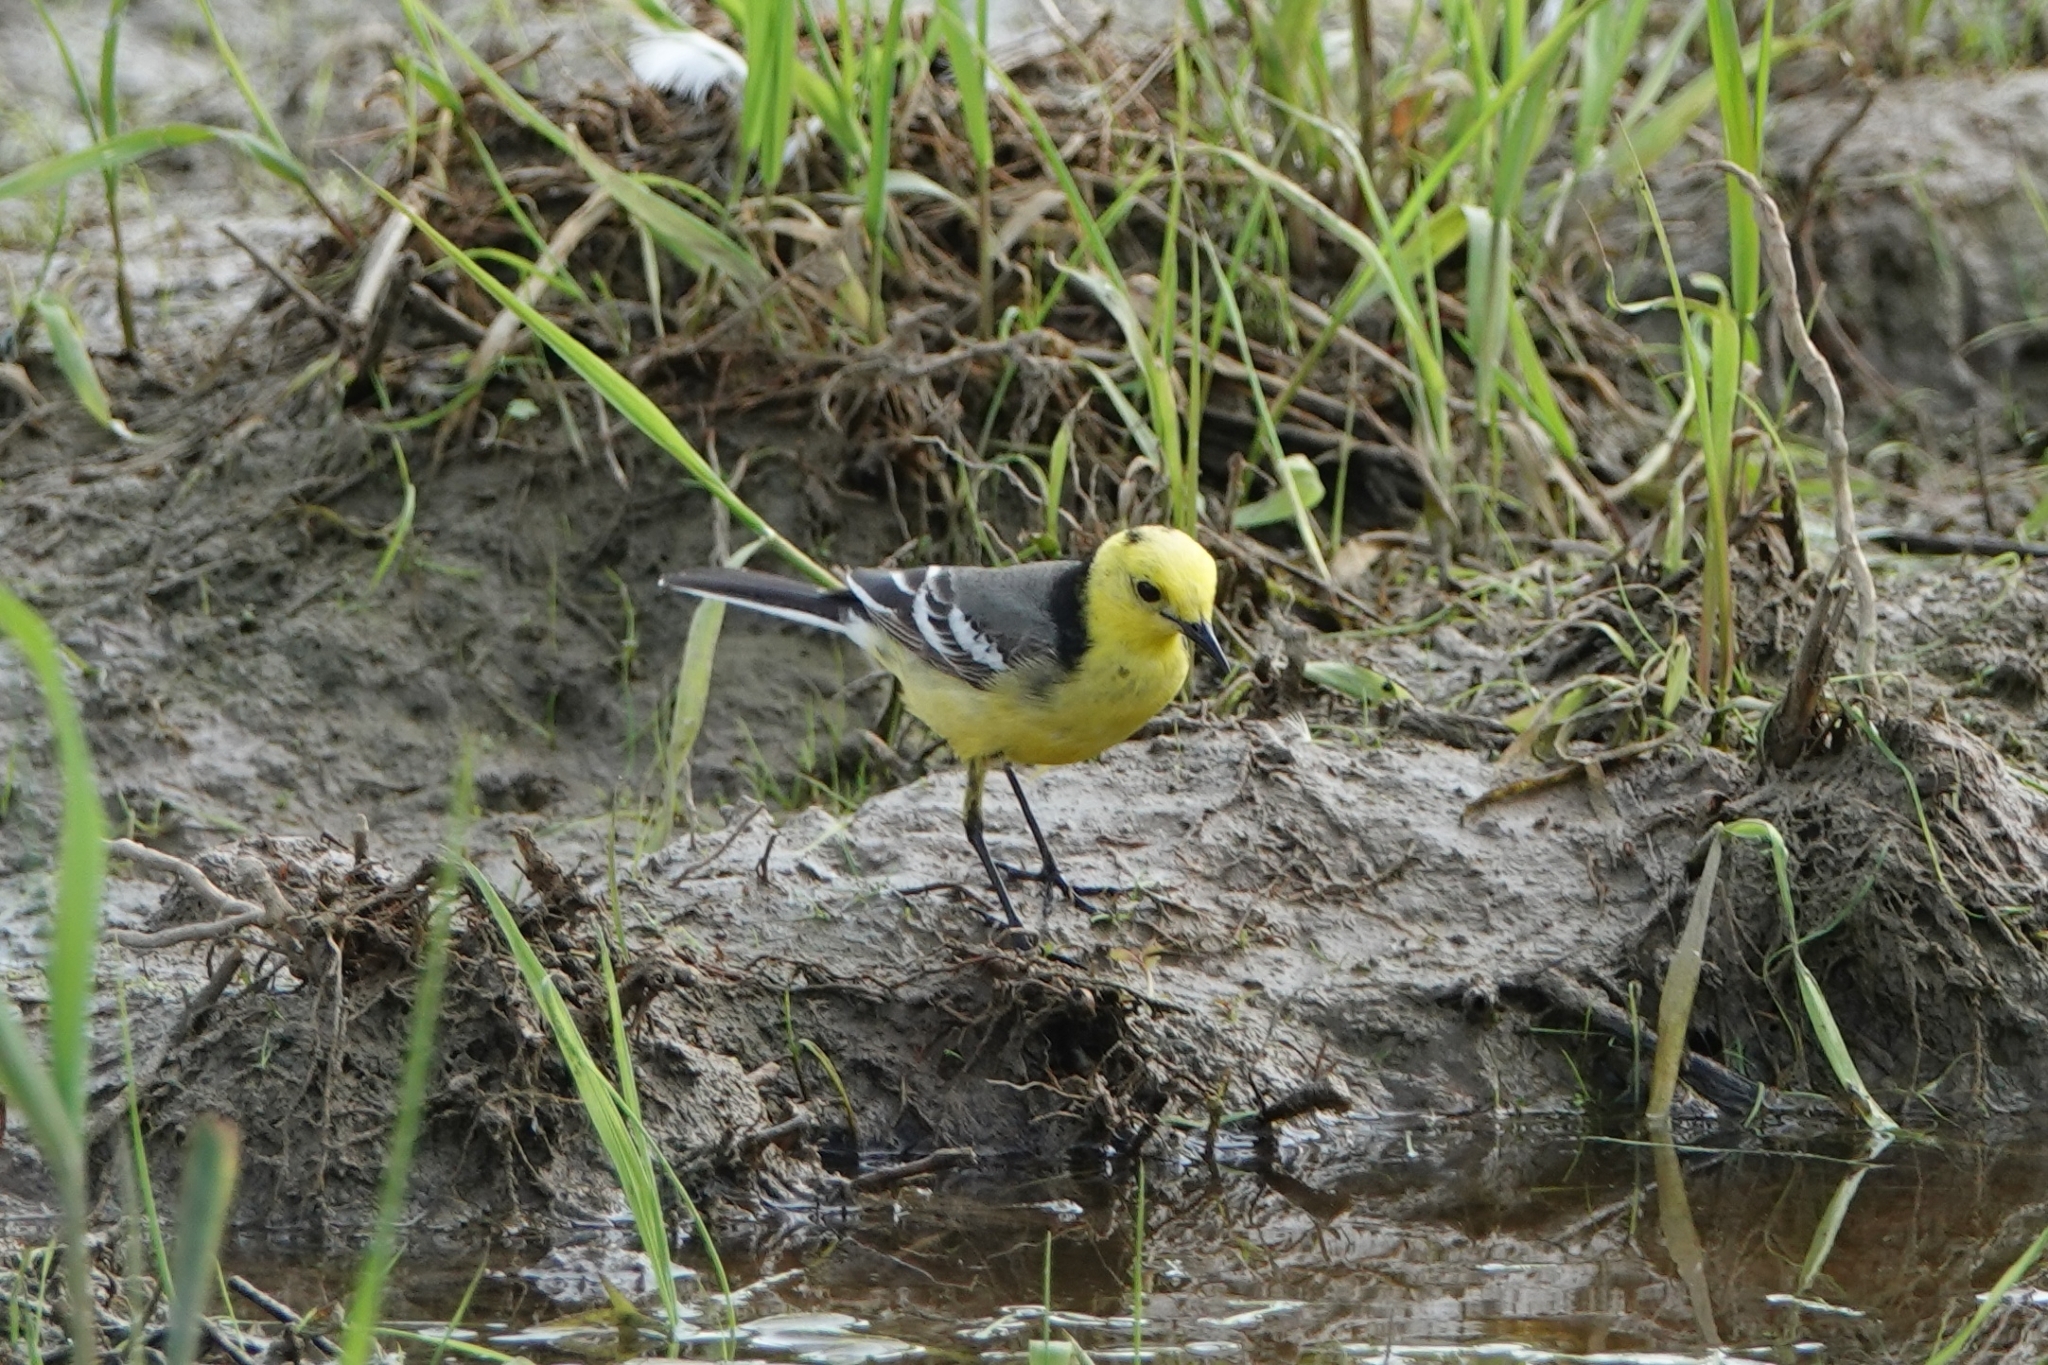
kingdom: Animalia
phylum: Chordata
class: Aves
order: Passeriformes
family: Motacillidae
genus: Motacilla
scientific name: Motacilla citreola
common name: Citrine wagtail
